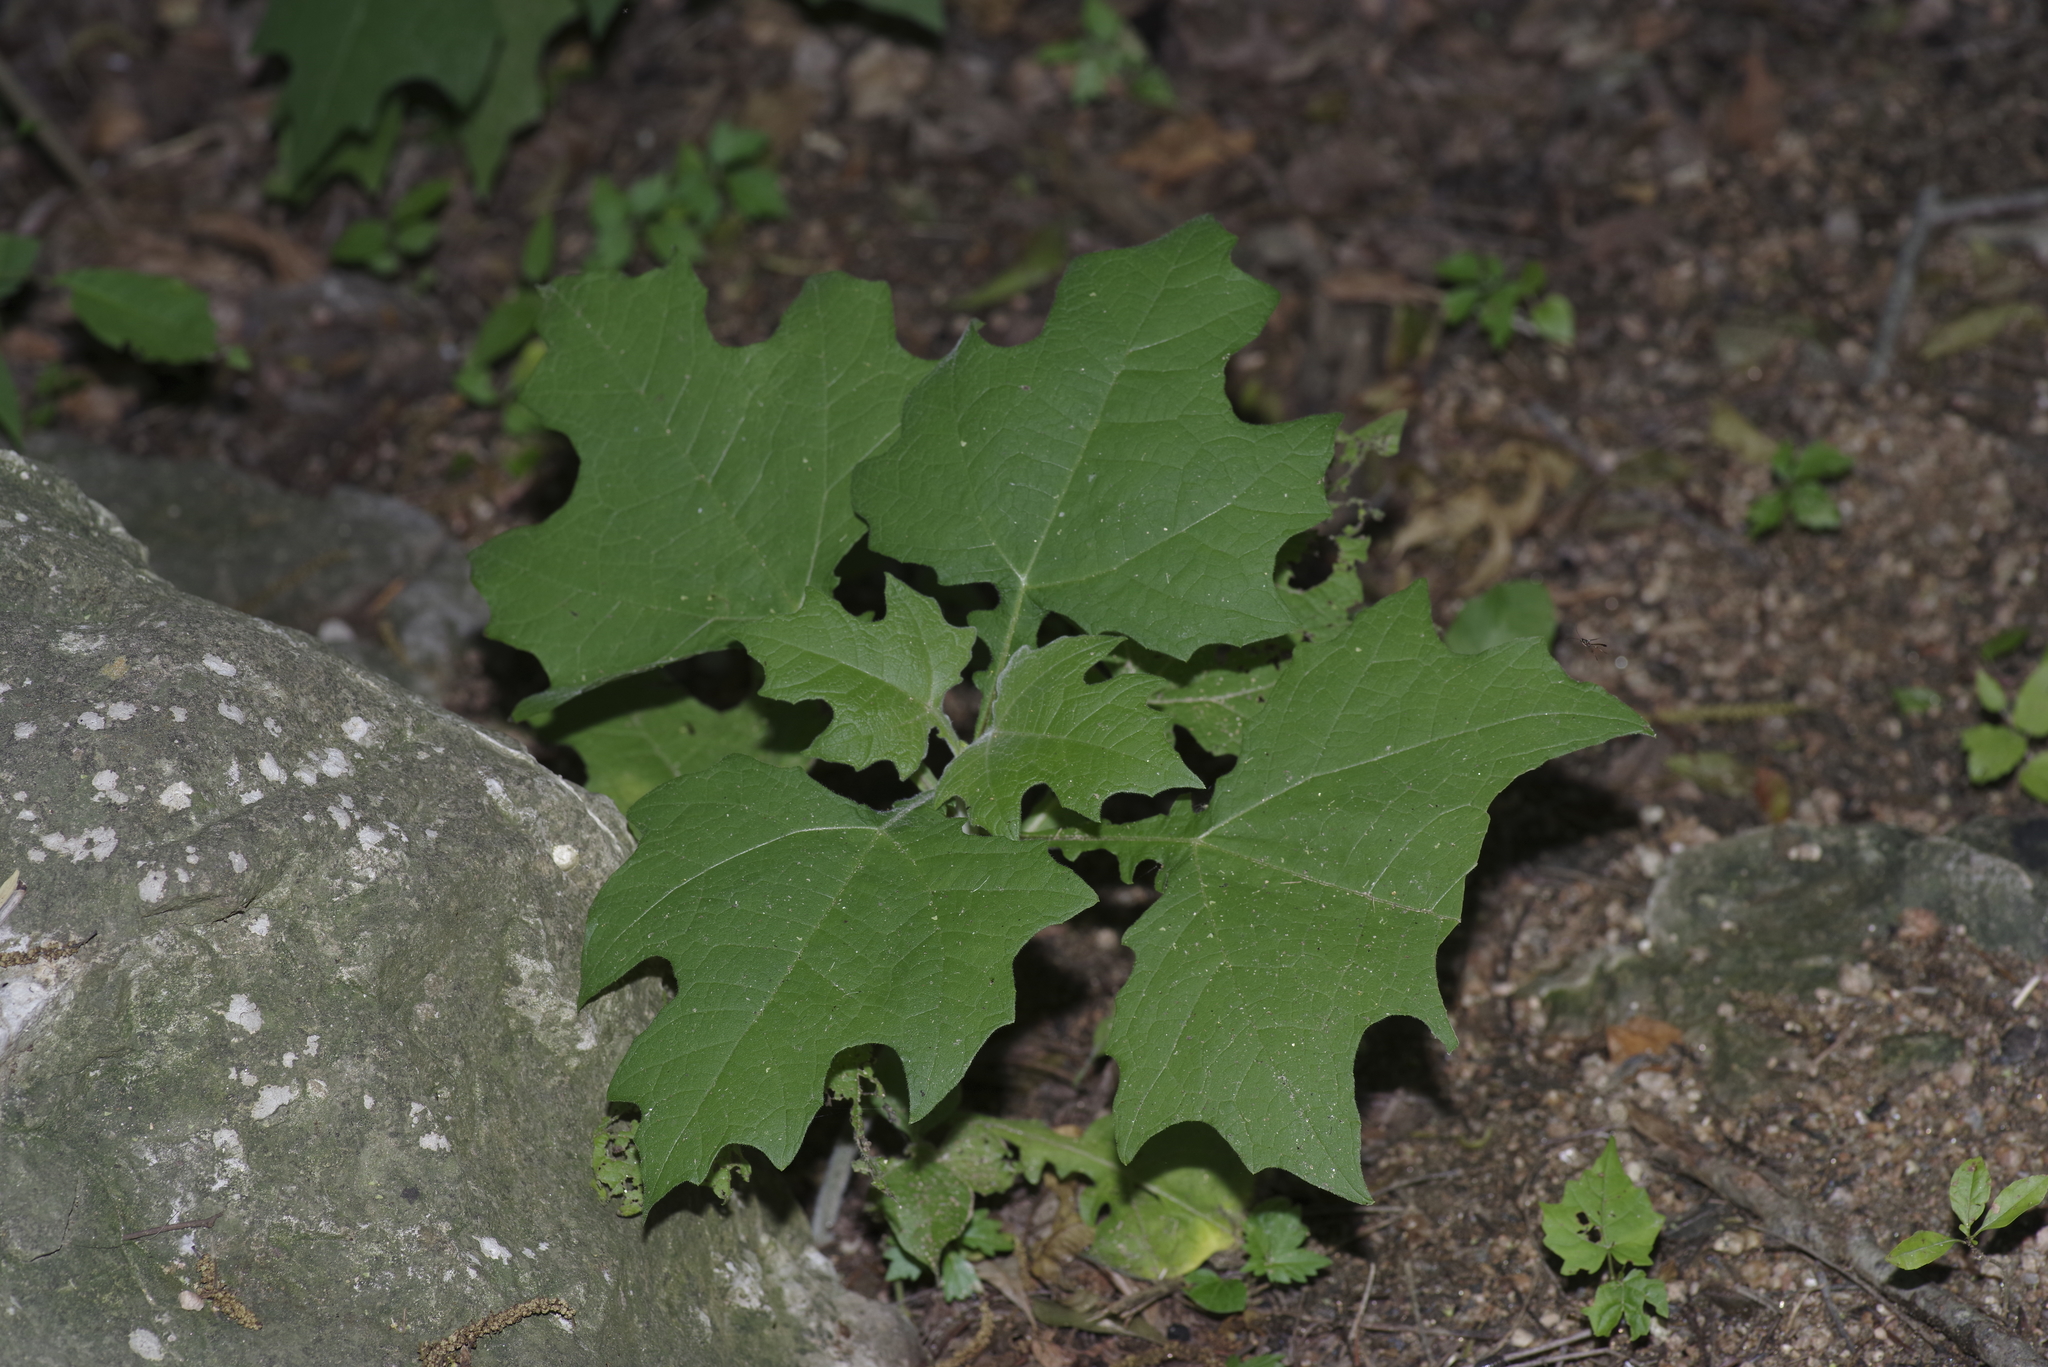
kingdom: Plantae
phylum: Tracheophyta
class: Magnoliopsida
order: Asterales
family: Asteraceae
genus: Smallanthus
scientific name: Smallanthus uvedalia
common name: Bear's-foot
